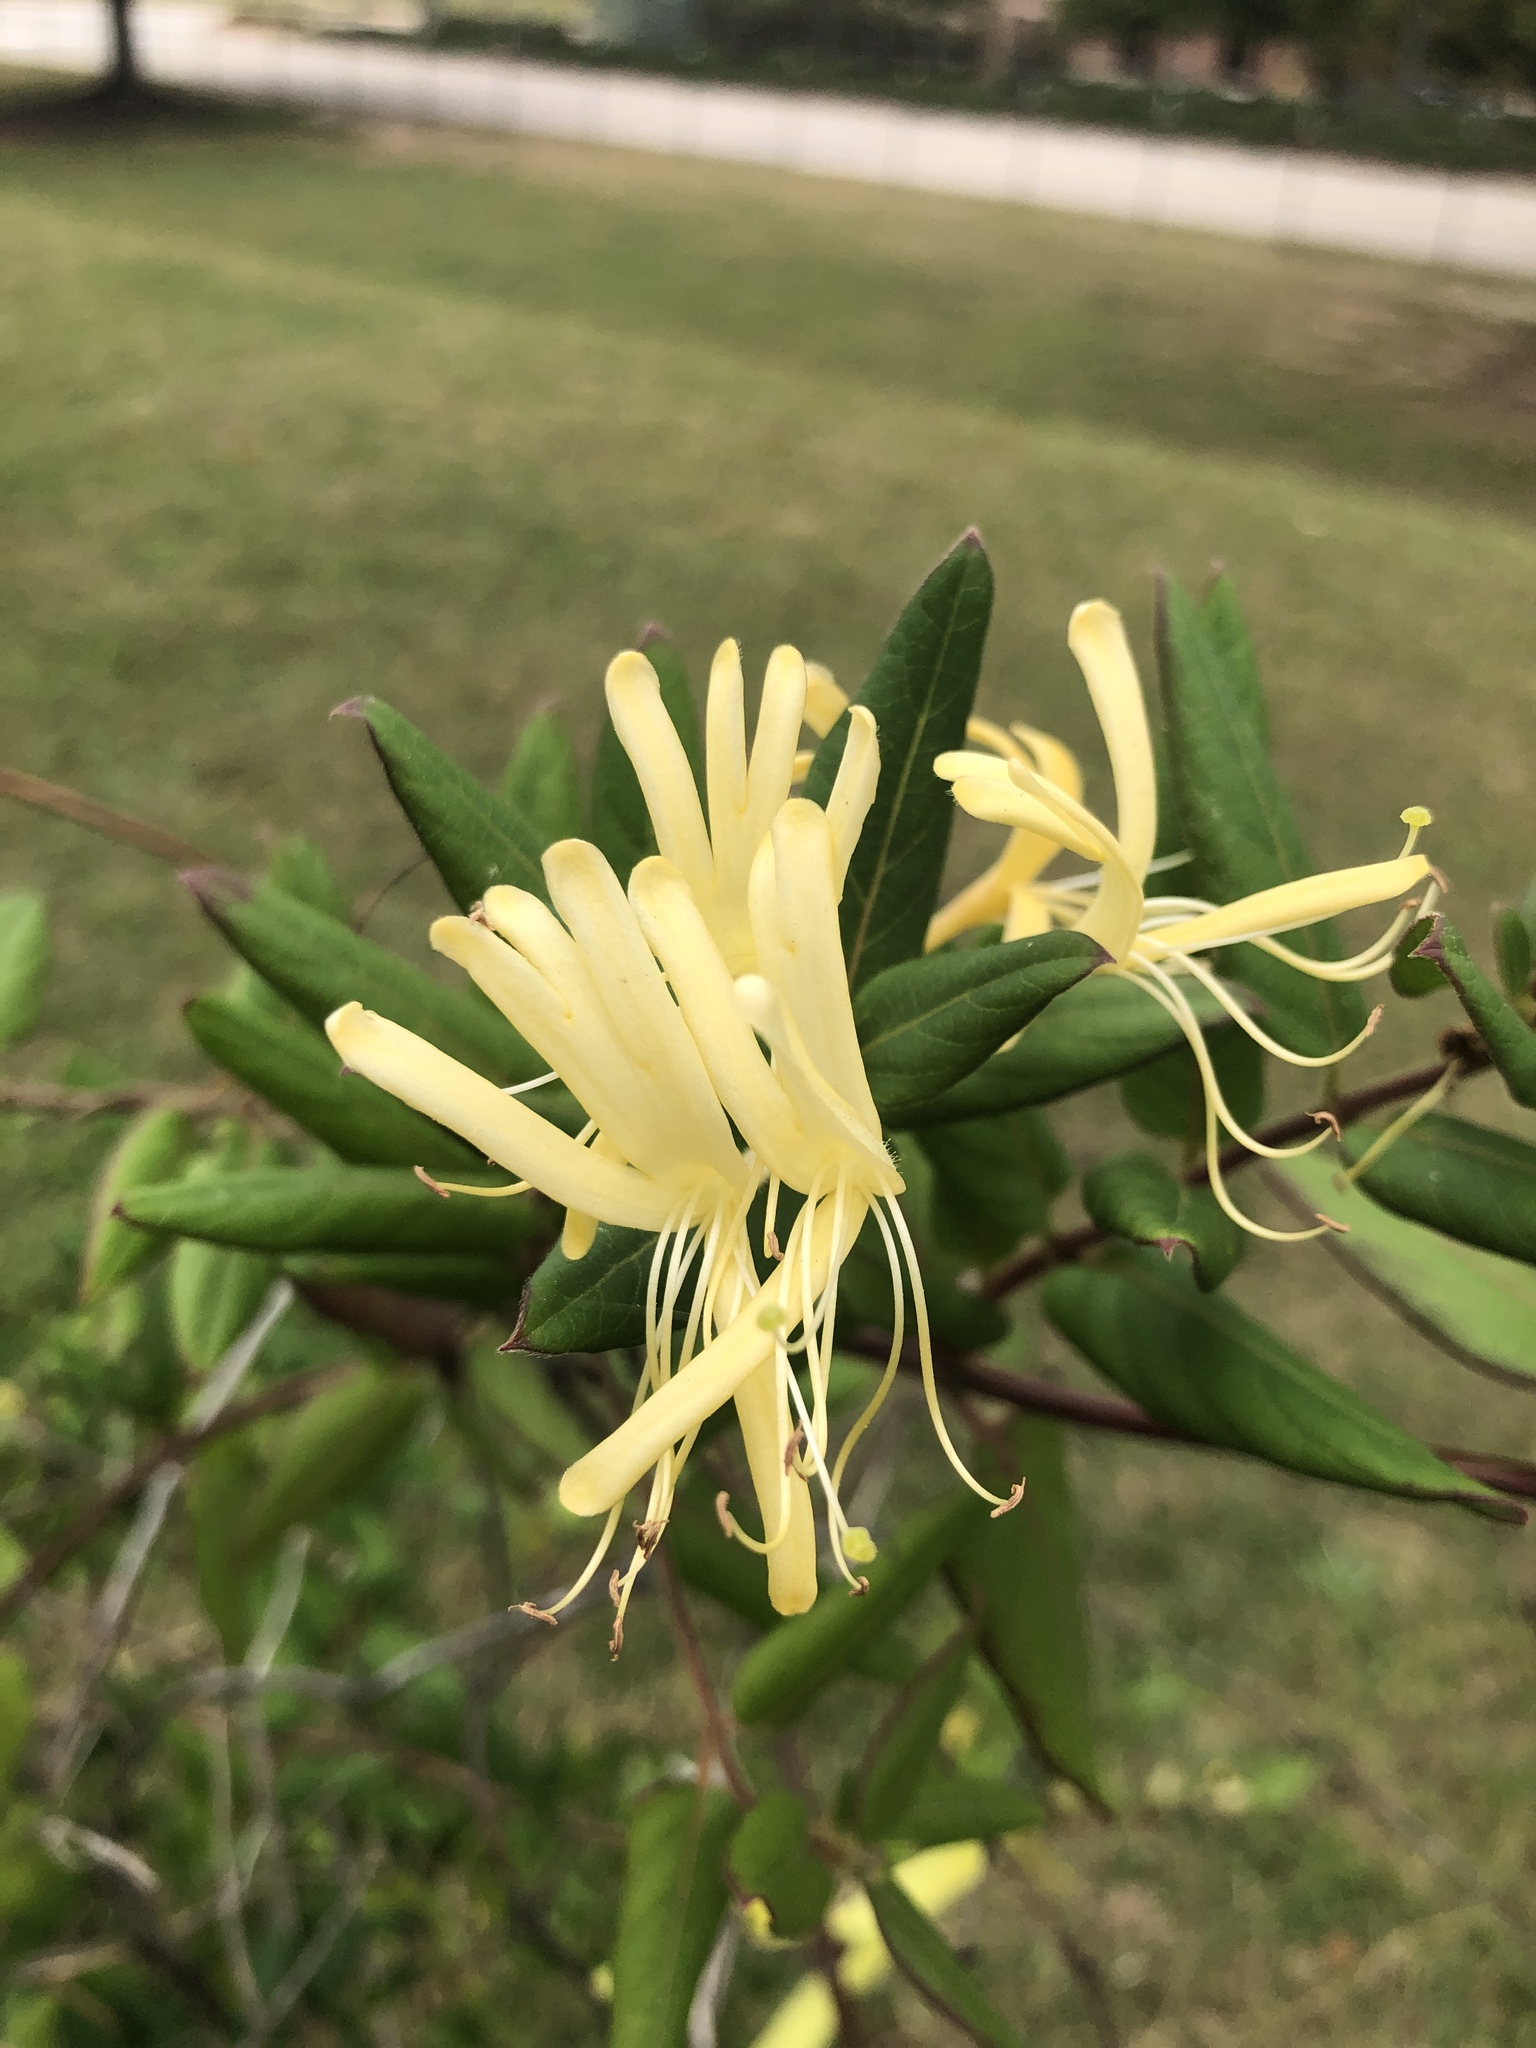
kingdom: Plantae
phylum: Tracheophyta
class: Magnoliopsida
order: Dipsacales
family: Caprifoliaceae
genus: Lonicera
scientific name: Lonicera japonica
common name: Japanese honeysuckle
